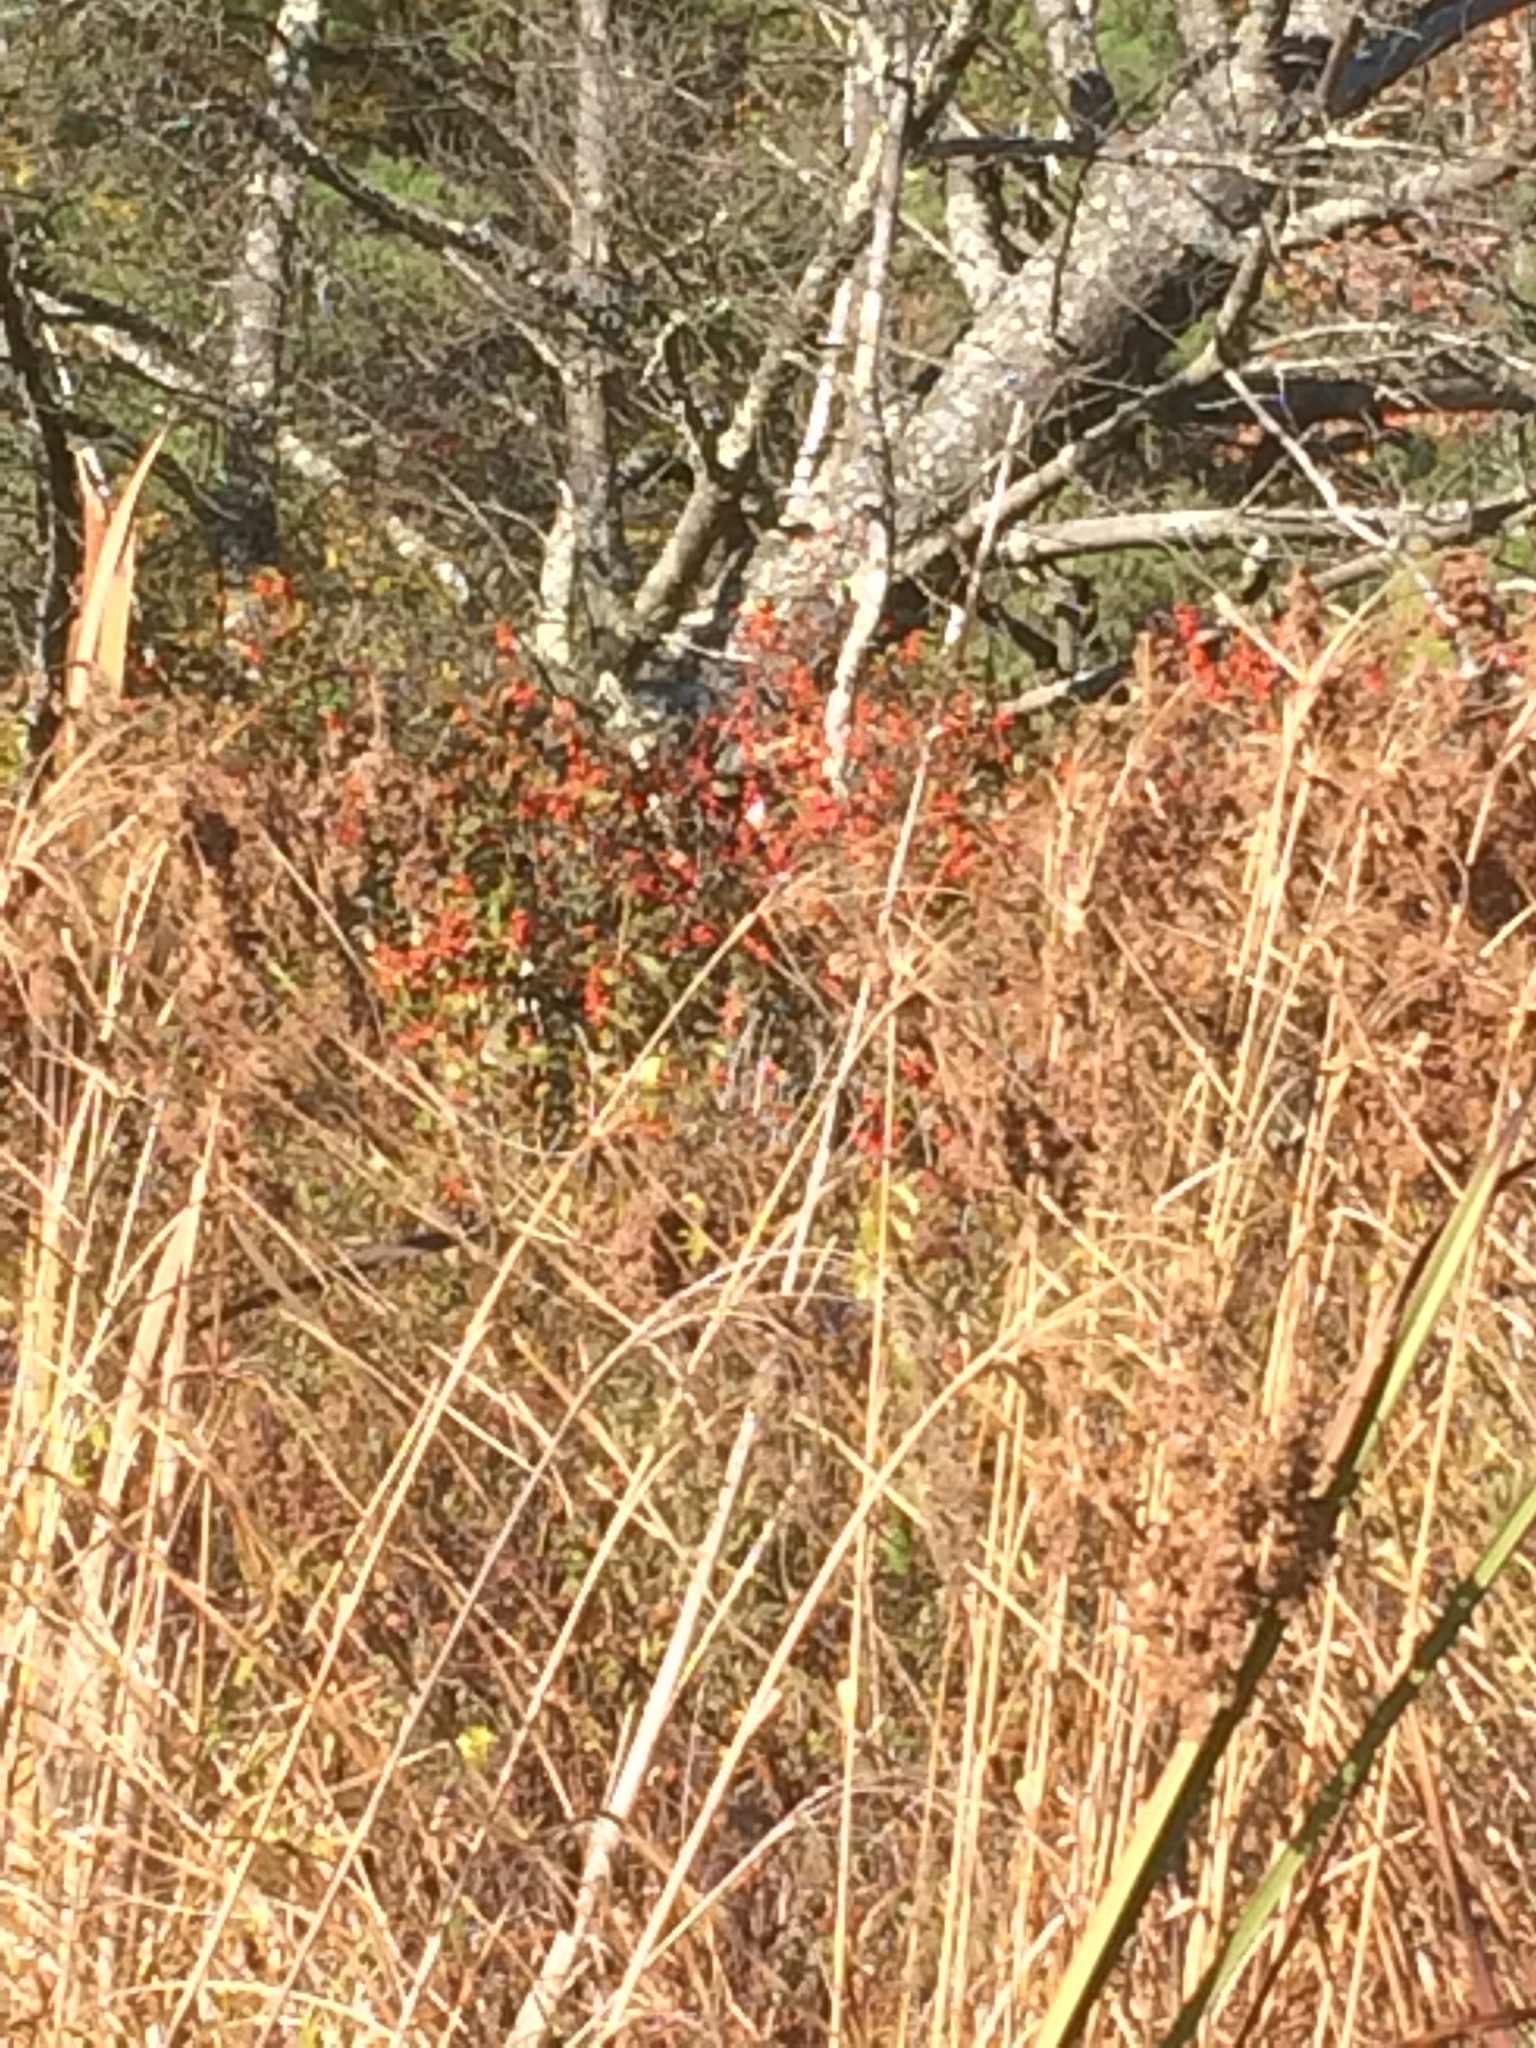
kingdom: Plantae
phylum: Tracheophyta
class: Magnoliopsida
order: Aquifoliales
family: Aquifoliaceae
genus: Ilex
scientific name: Ilex verticillata
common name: Virginia winterberry
